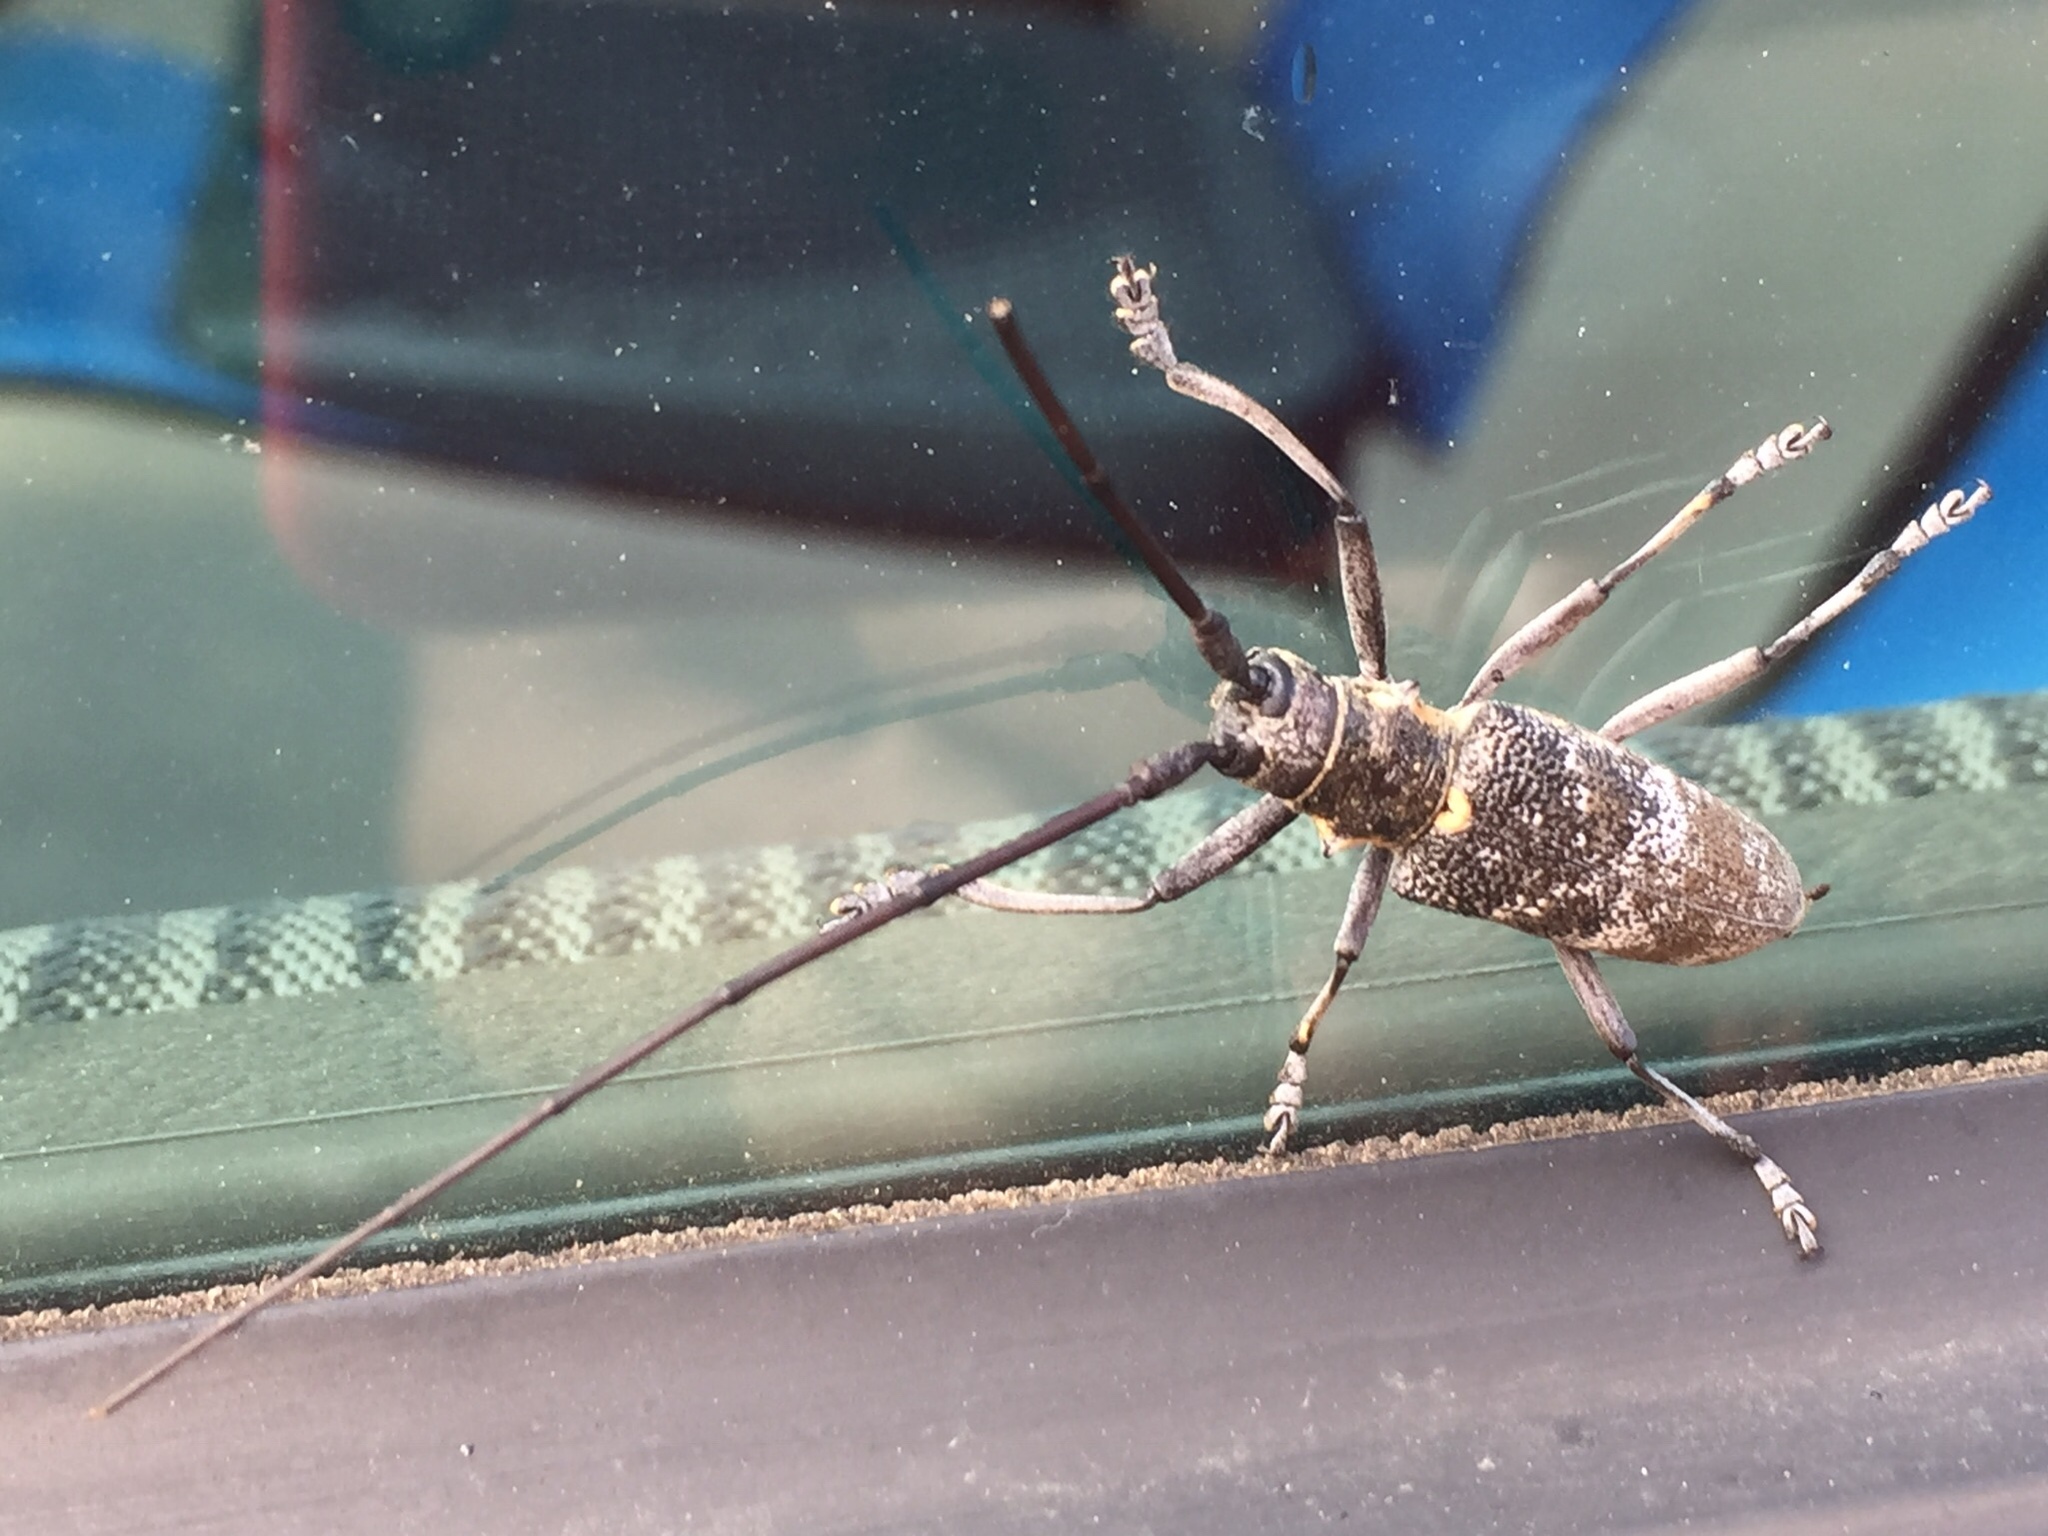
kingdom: Animalia
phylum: Arthropoda
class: Insecta
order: Coleoptera
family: Cerambycidae
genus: Monochamus
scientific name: Monochamus galloprovincialis
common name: Pine sawyer
